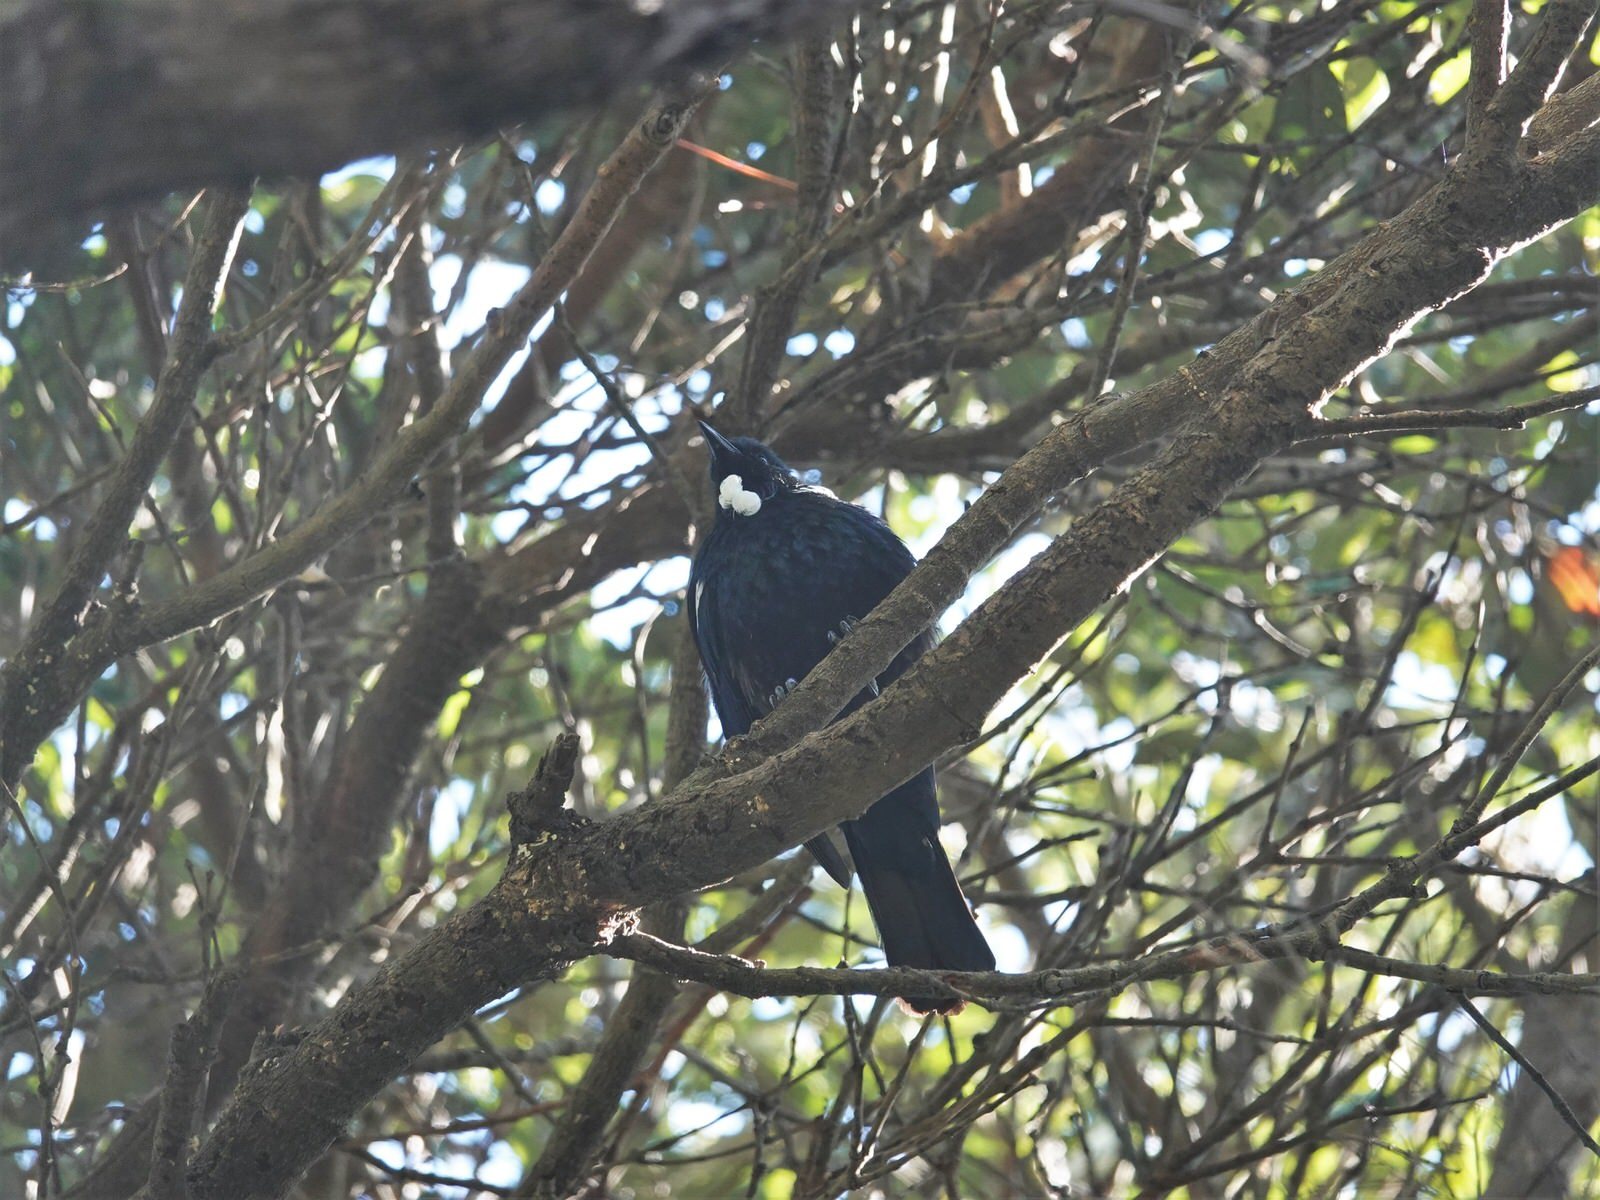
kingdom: Animalia
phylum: Chordata
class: Aves
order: Passeriformes
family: Meliphagidae
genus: Prosthemadera
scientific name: Prosthemadera novaeseelandiae
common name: Tui
